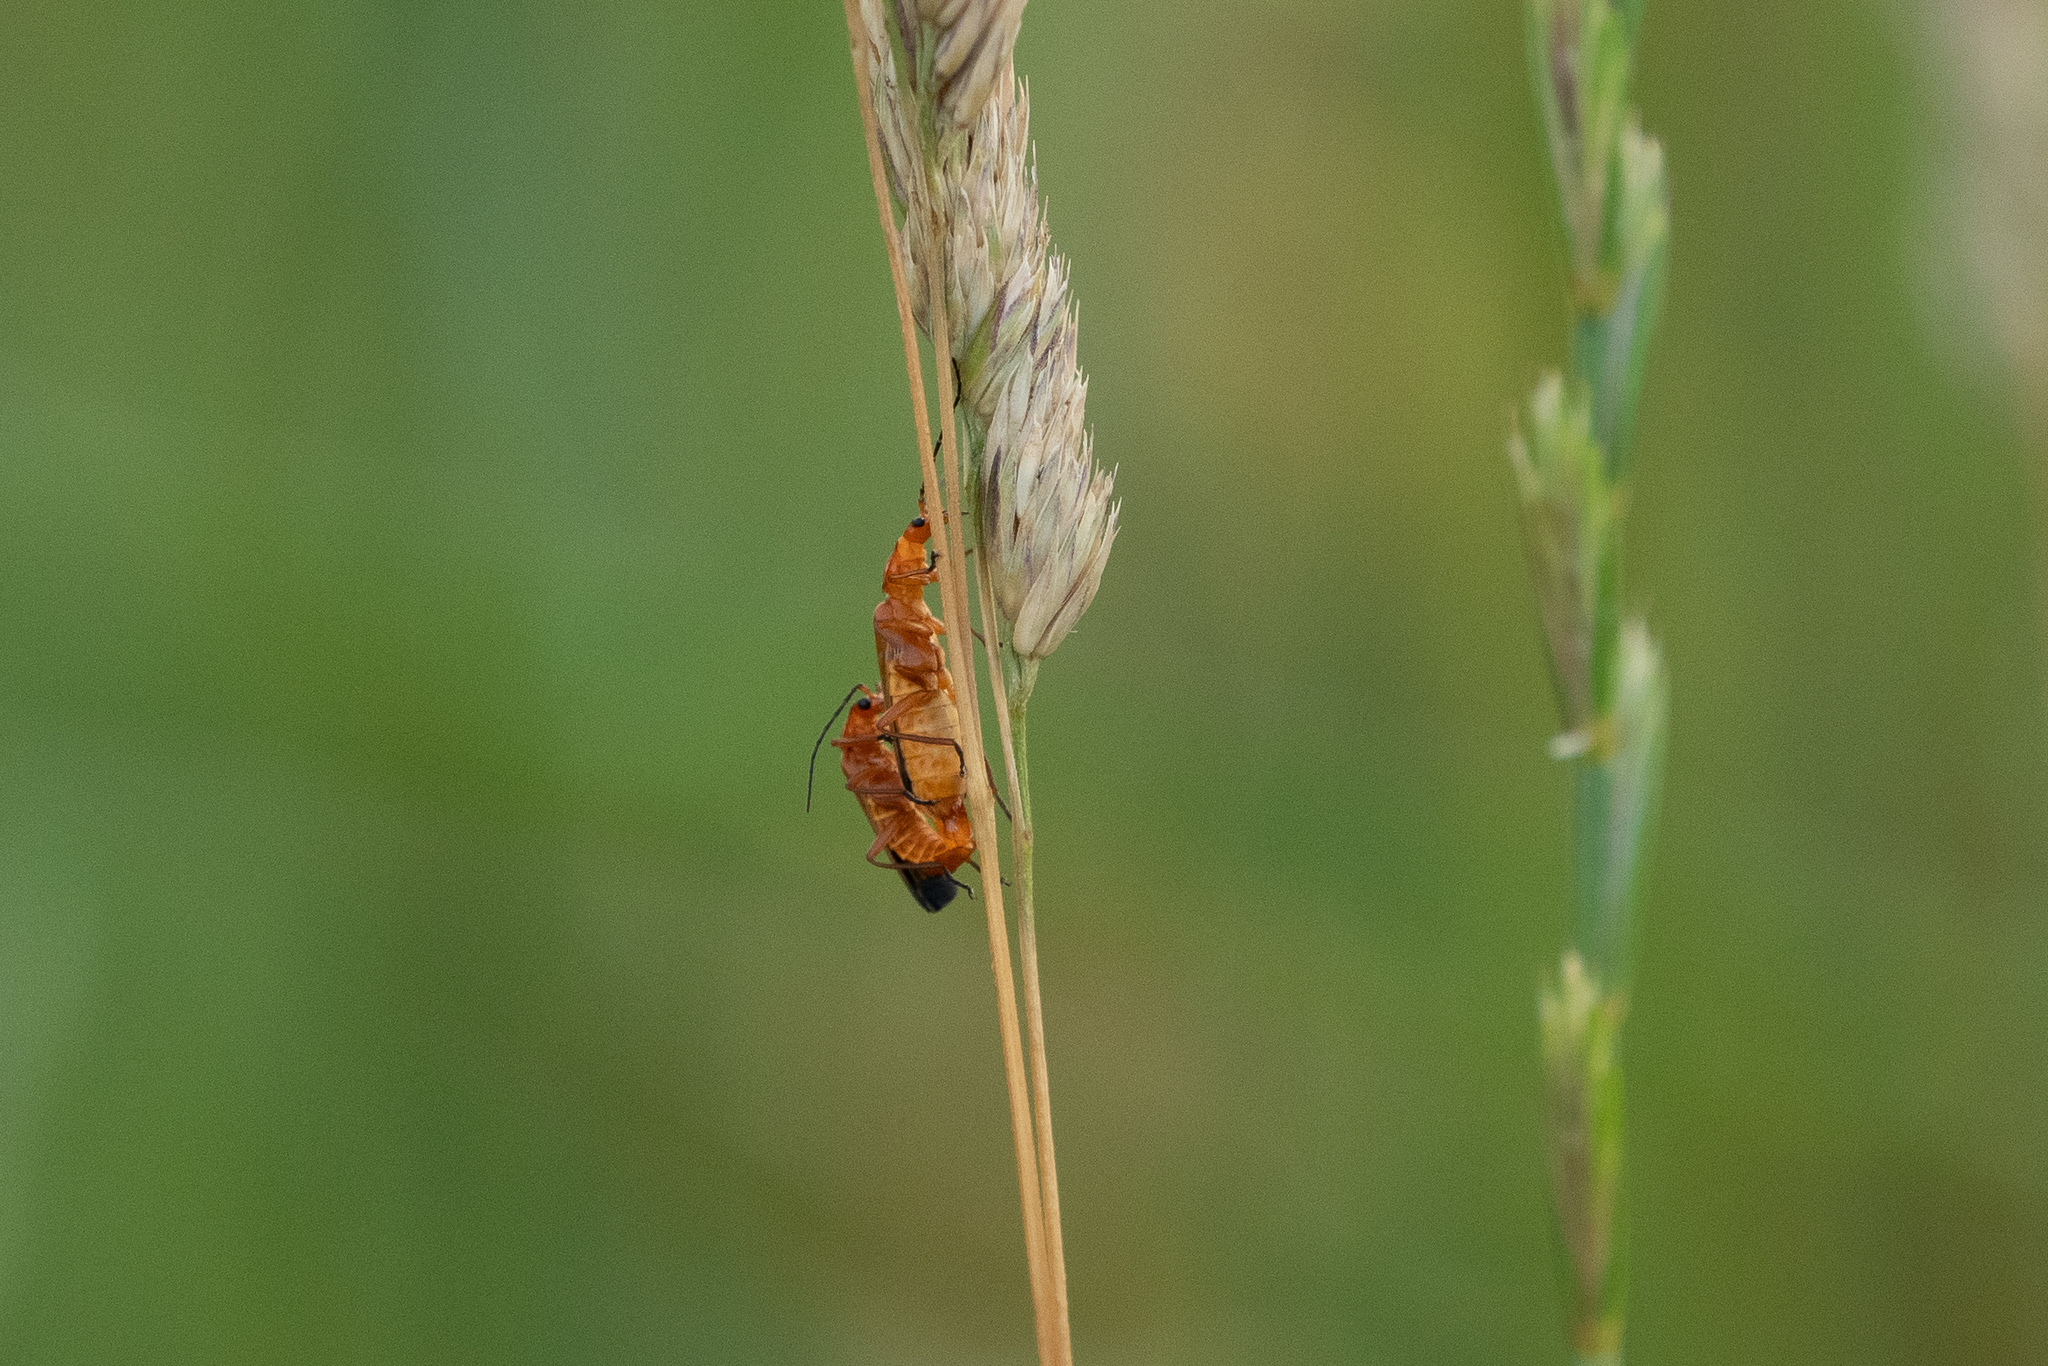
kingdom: Animalia
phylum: Arthropoda
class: Insecta
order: Coleoptera
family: Cantharidae
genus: Rhagonycha
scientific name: Rhagonycha fulva
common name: Common red soldier beetle
